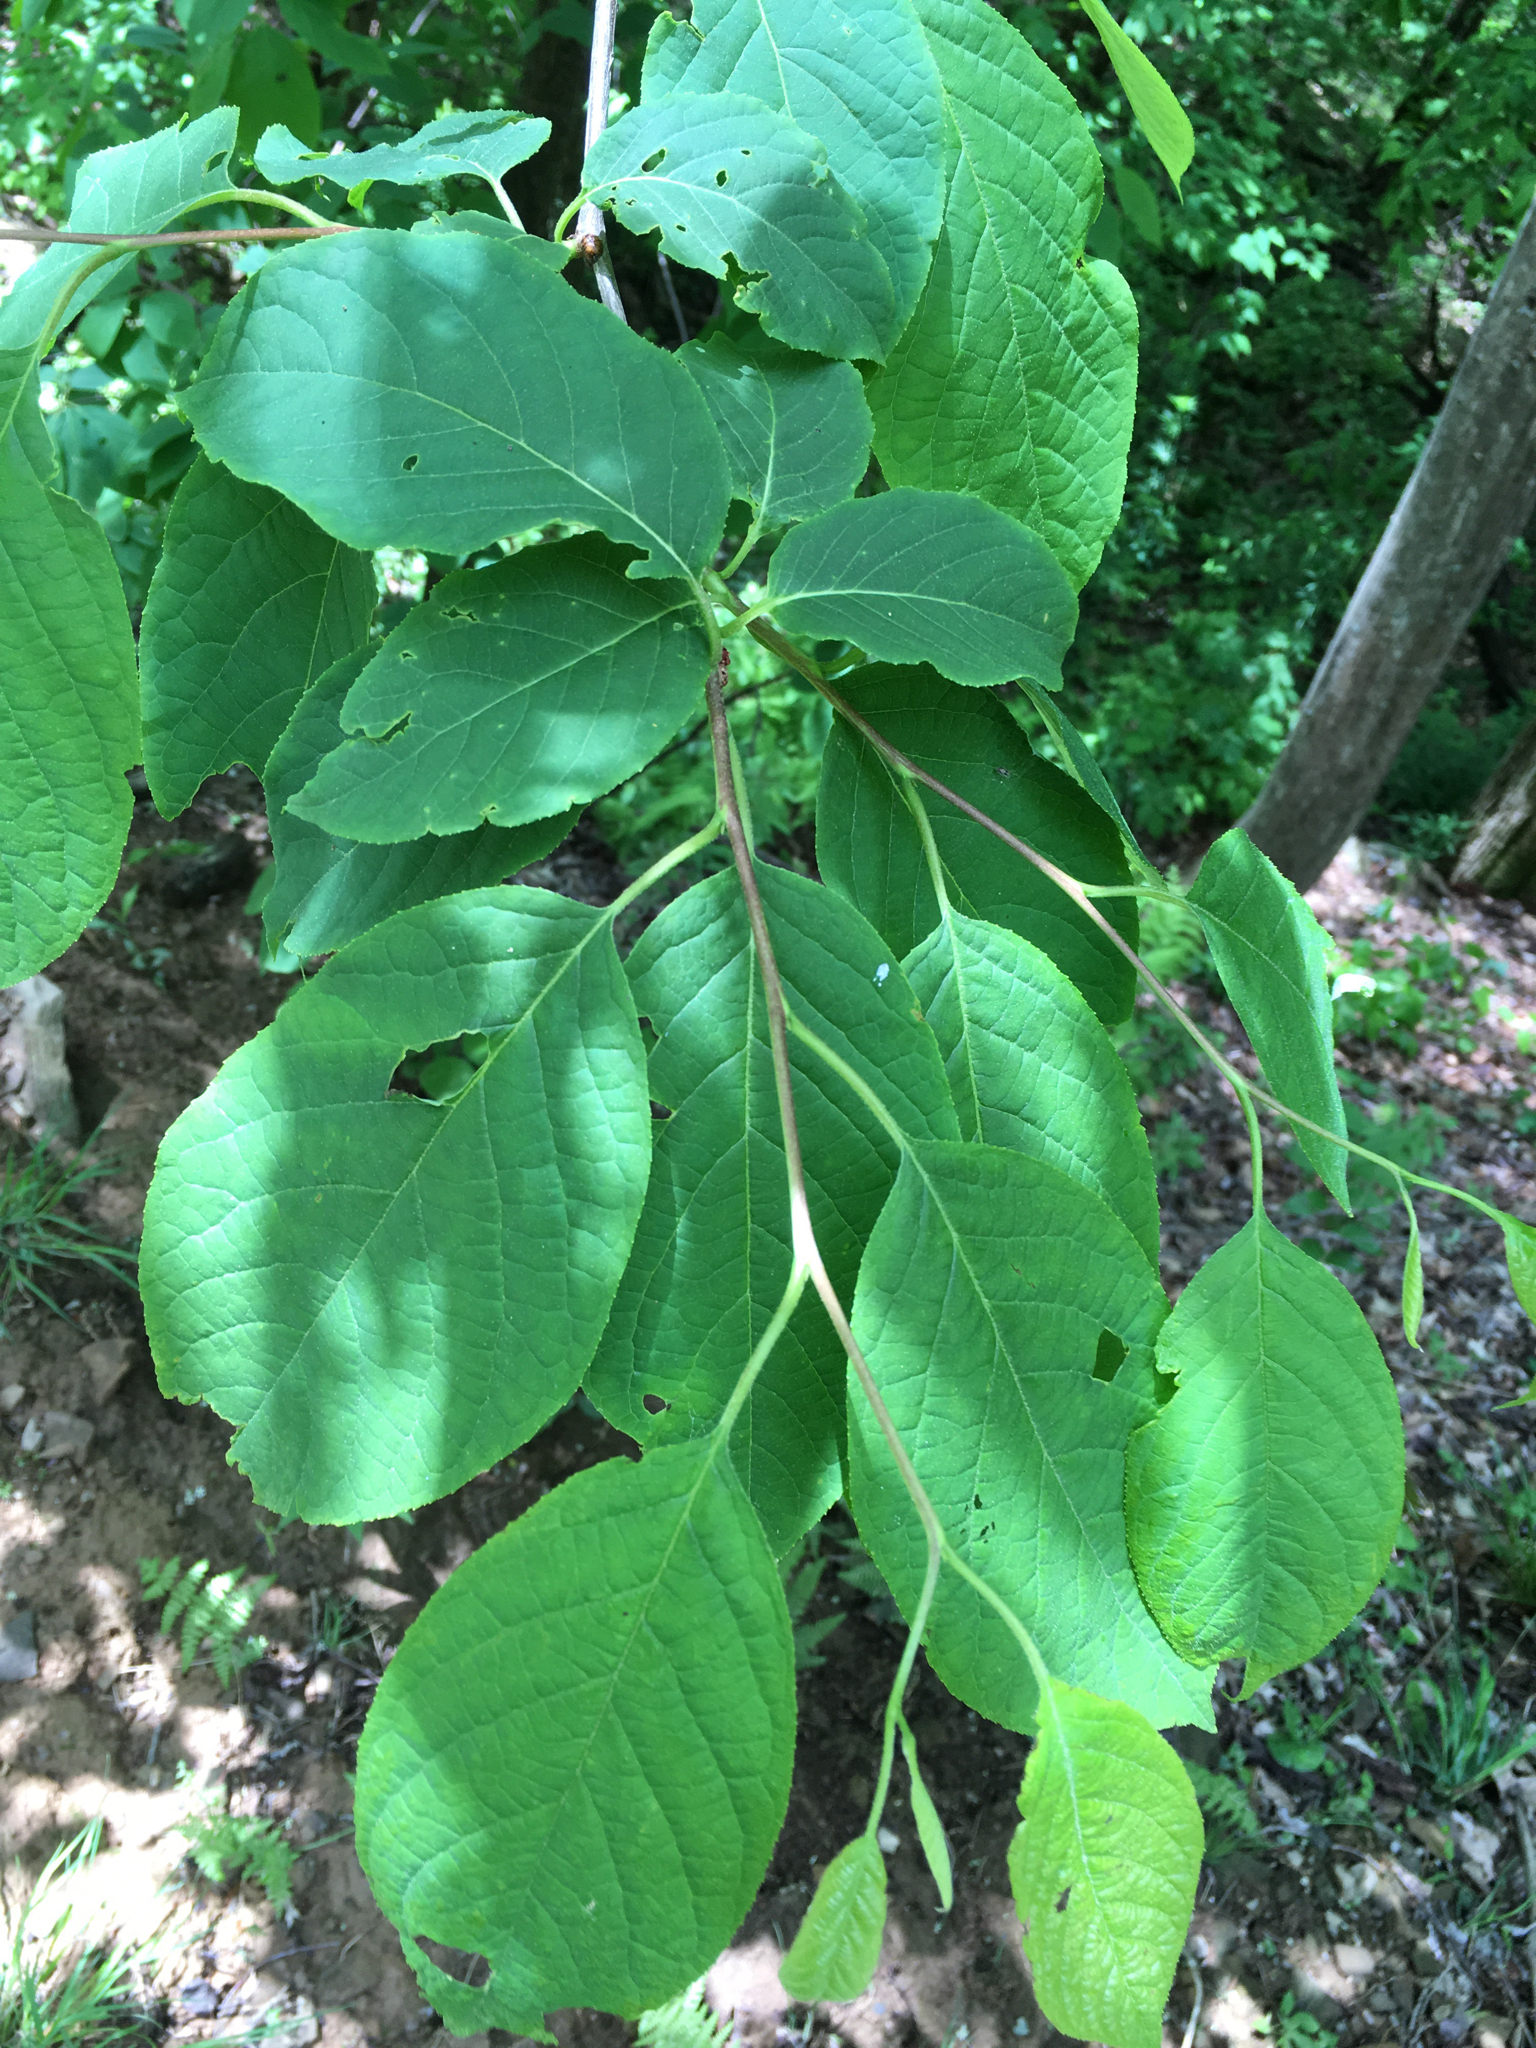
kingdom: Plantae
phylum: Tracheophyta
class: Magnoliopsida
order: Ericales
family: Styracaceae
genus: Halesia
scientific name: Halesia tetraptera
